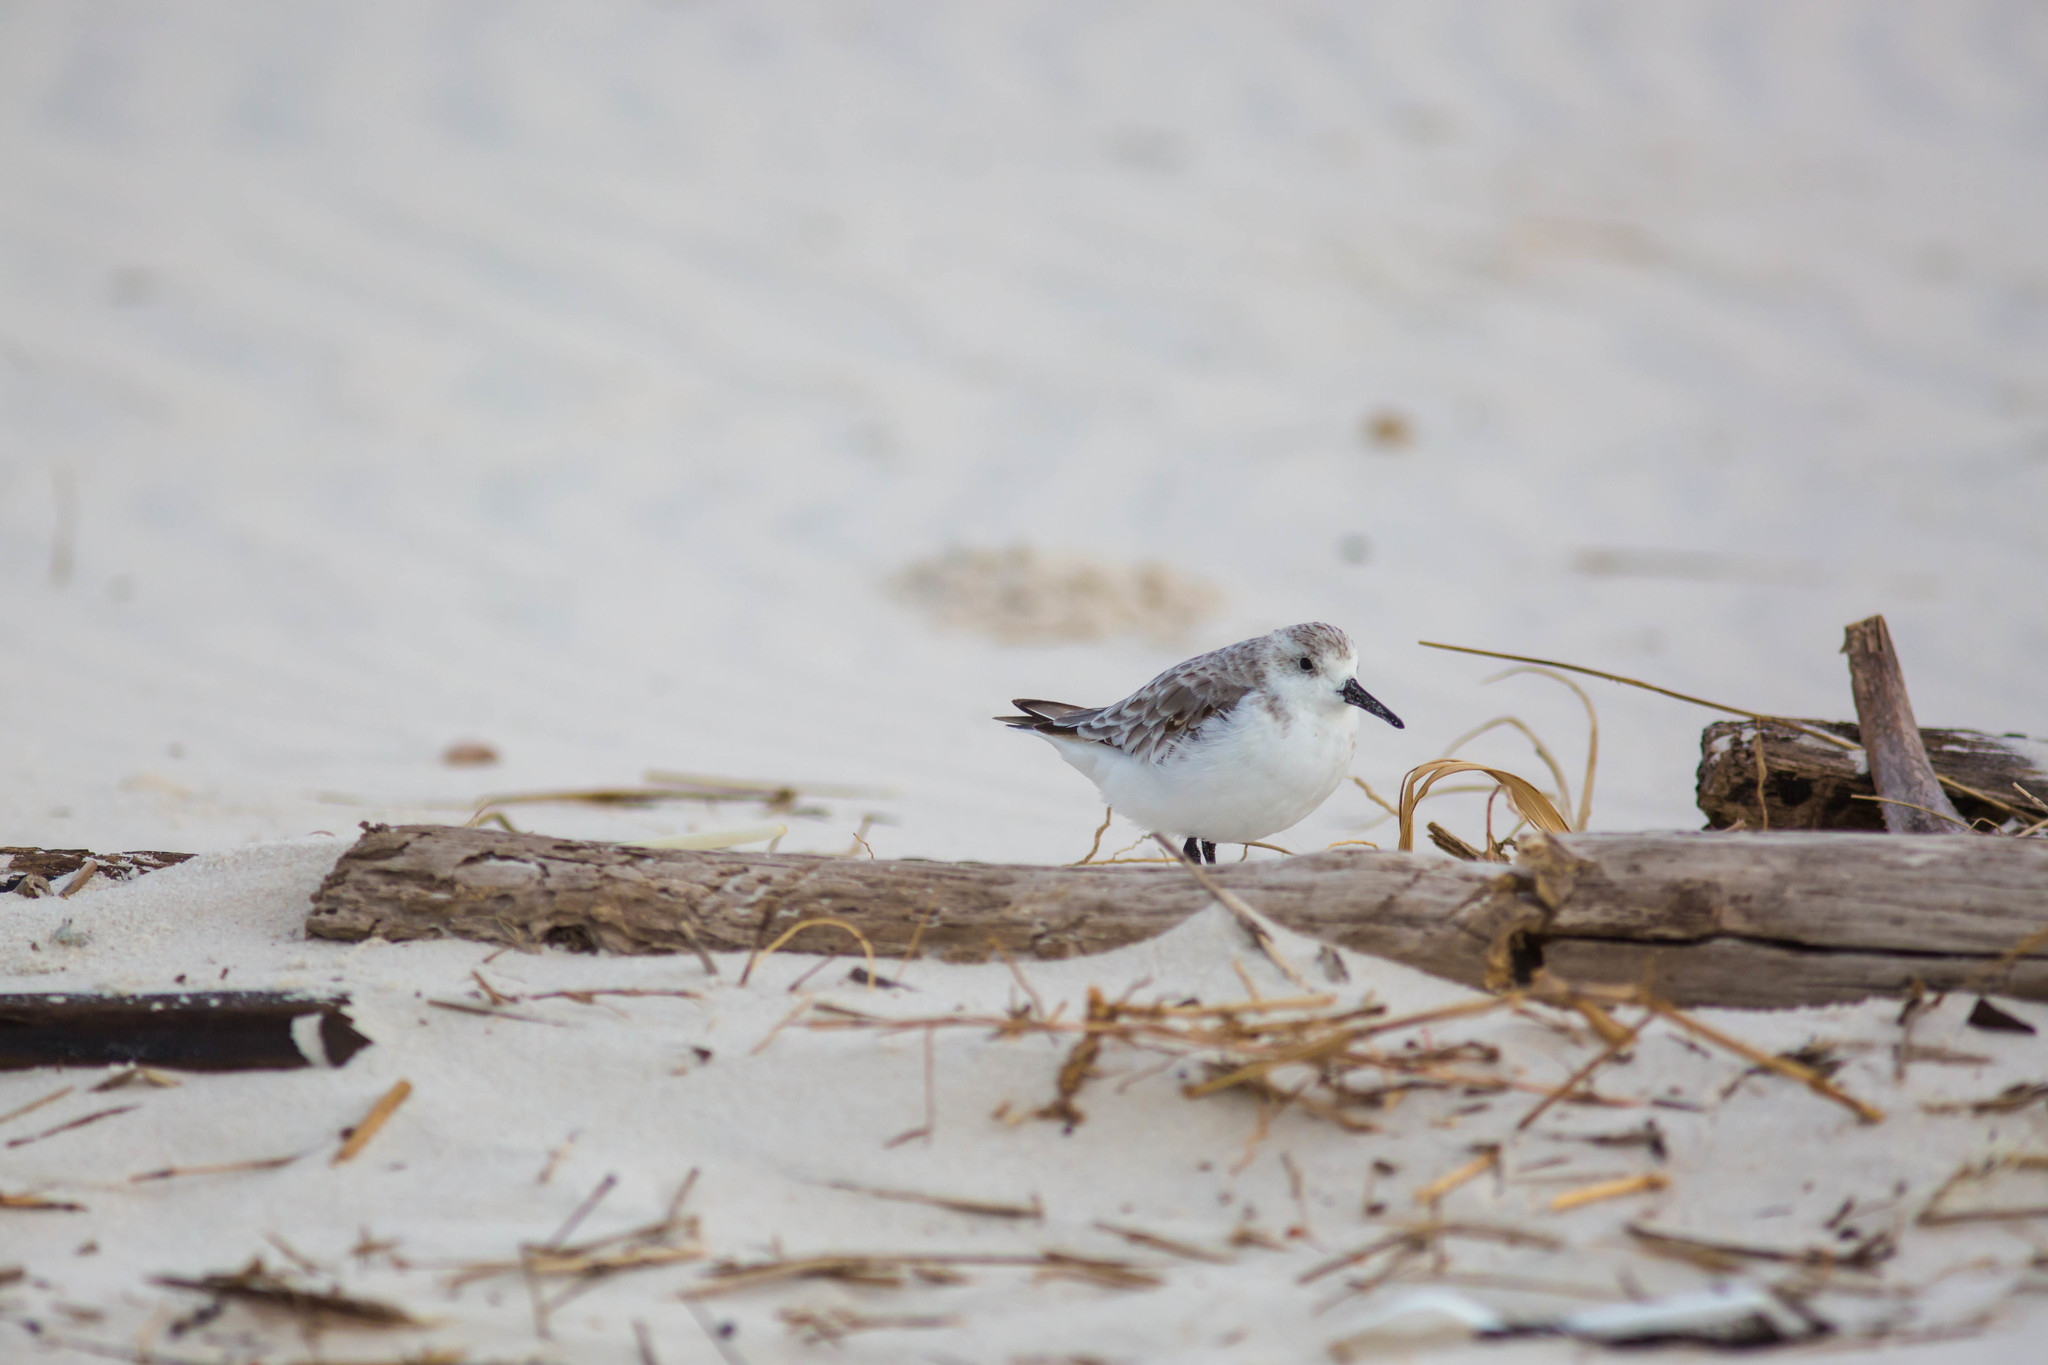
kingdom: Animalia
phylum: Chordata
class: Aves
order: Charadriiformes
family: Scolopacidae
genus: Calidris
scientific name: Calidris alba
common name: Sanderling
